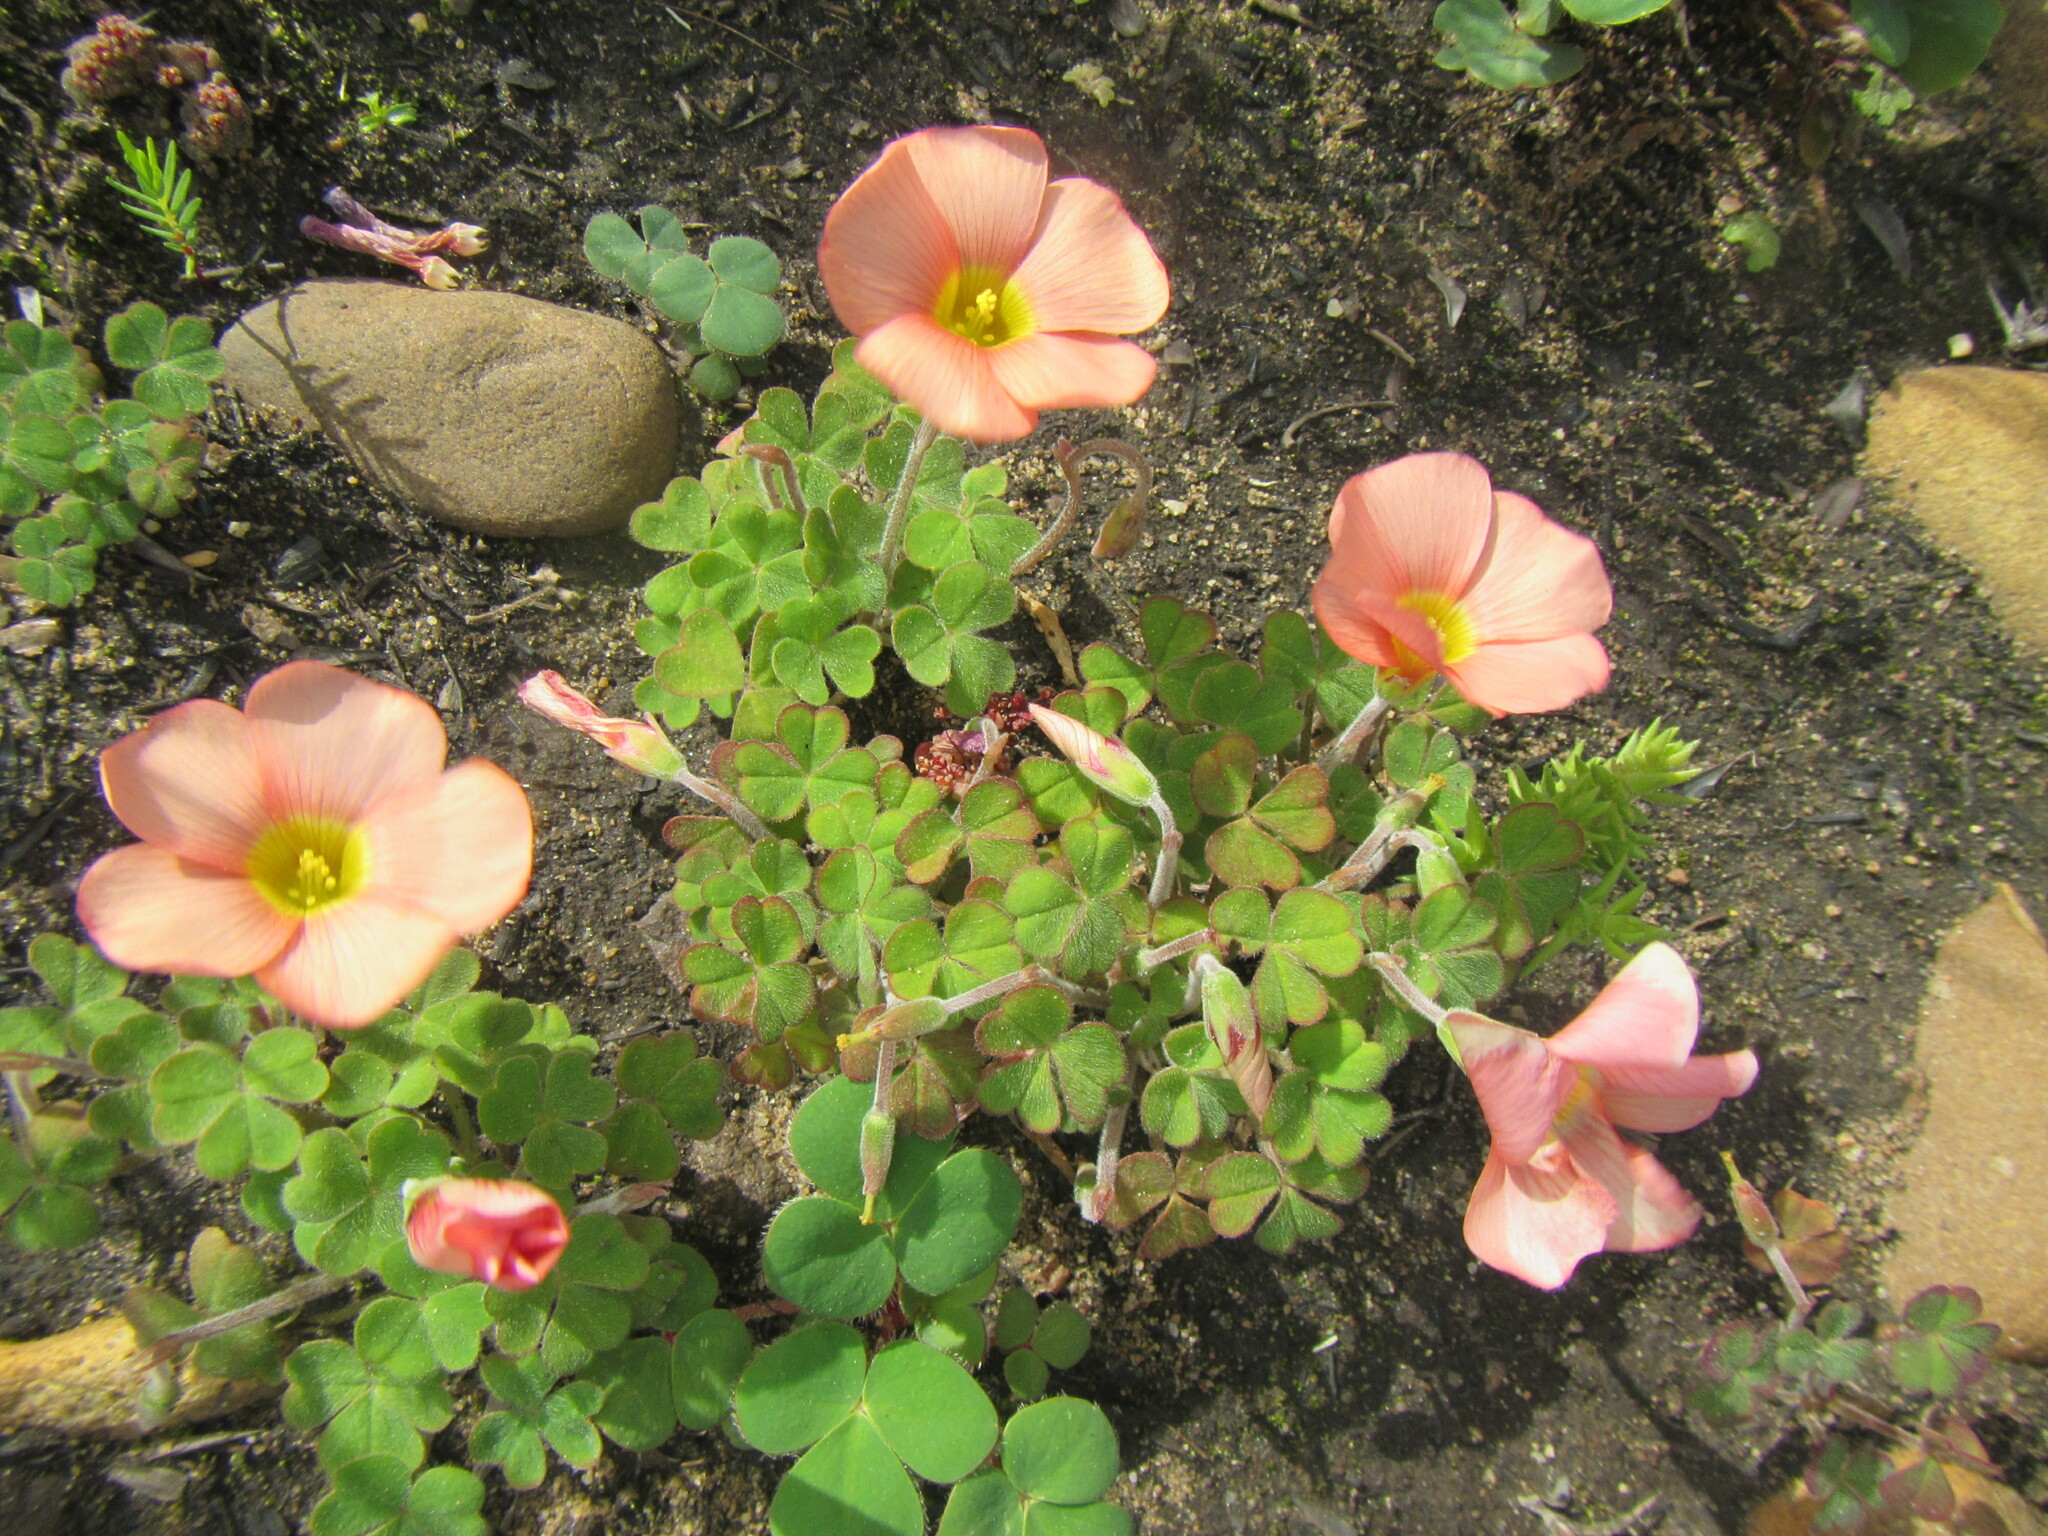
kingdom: Plantae
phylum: Tracheophyta
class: Magnoliopsida
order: Oxalidales
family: Oxalidaceae
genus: Oxalis
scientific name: Oxalis obtusa
